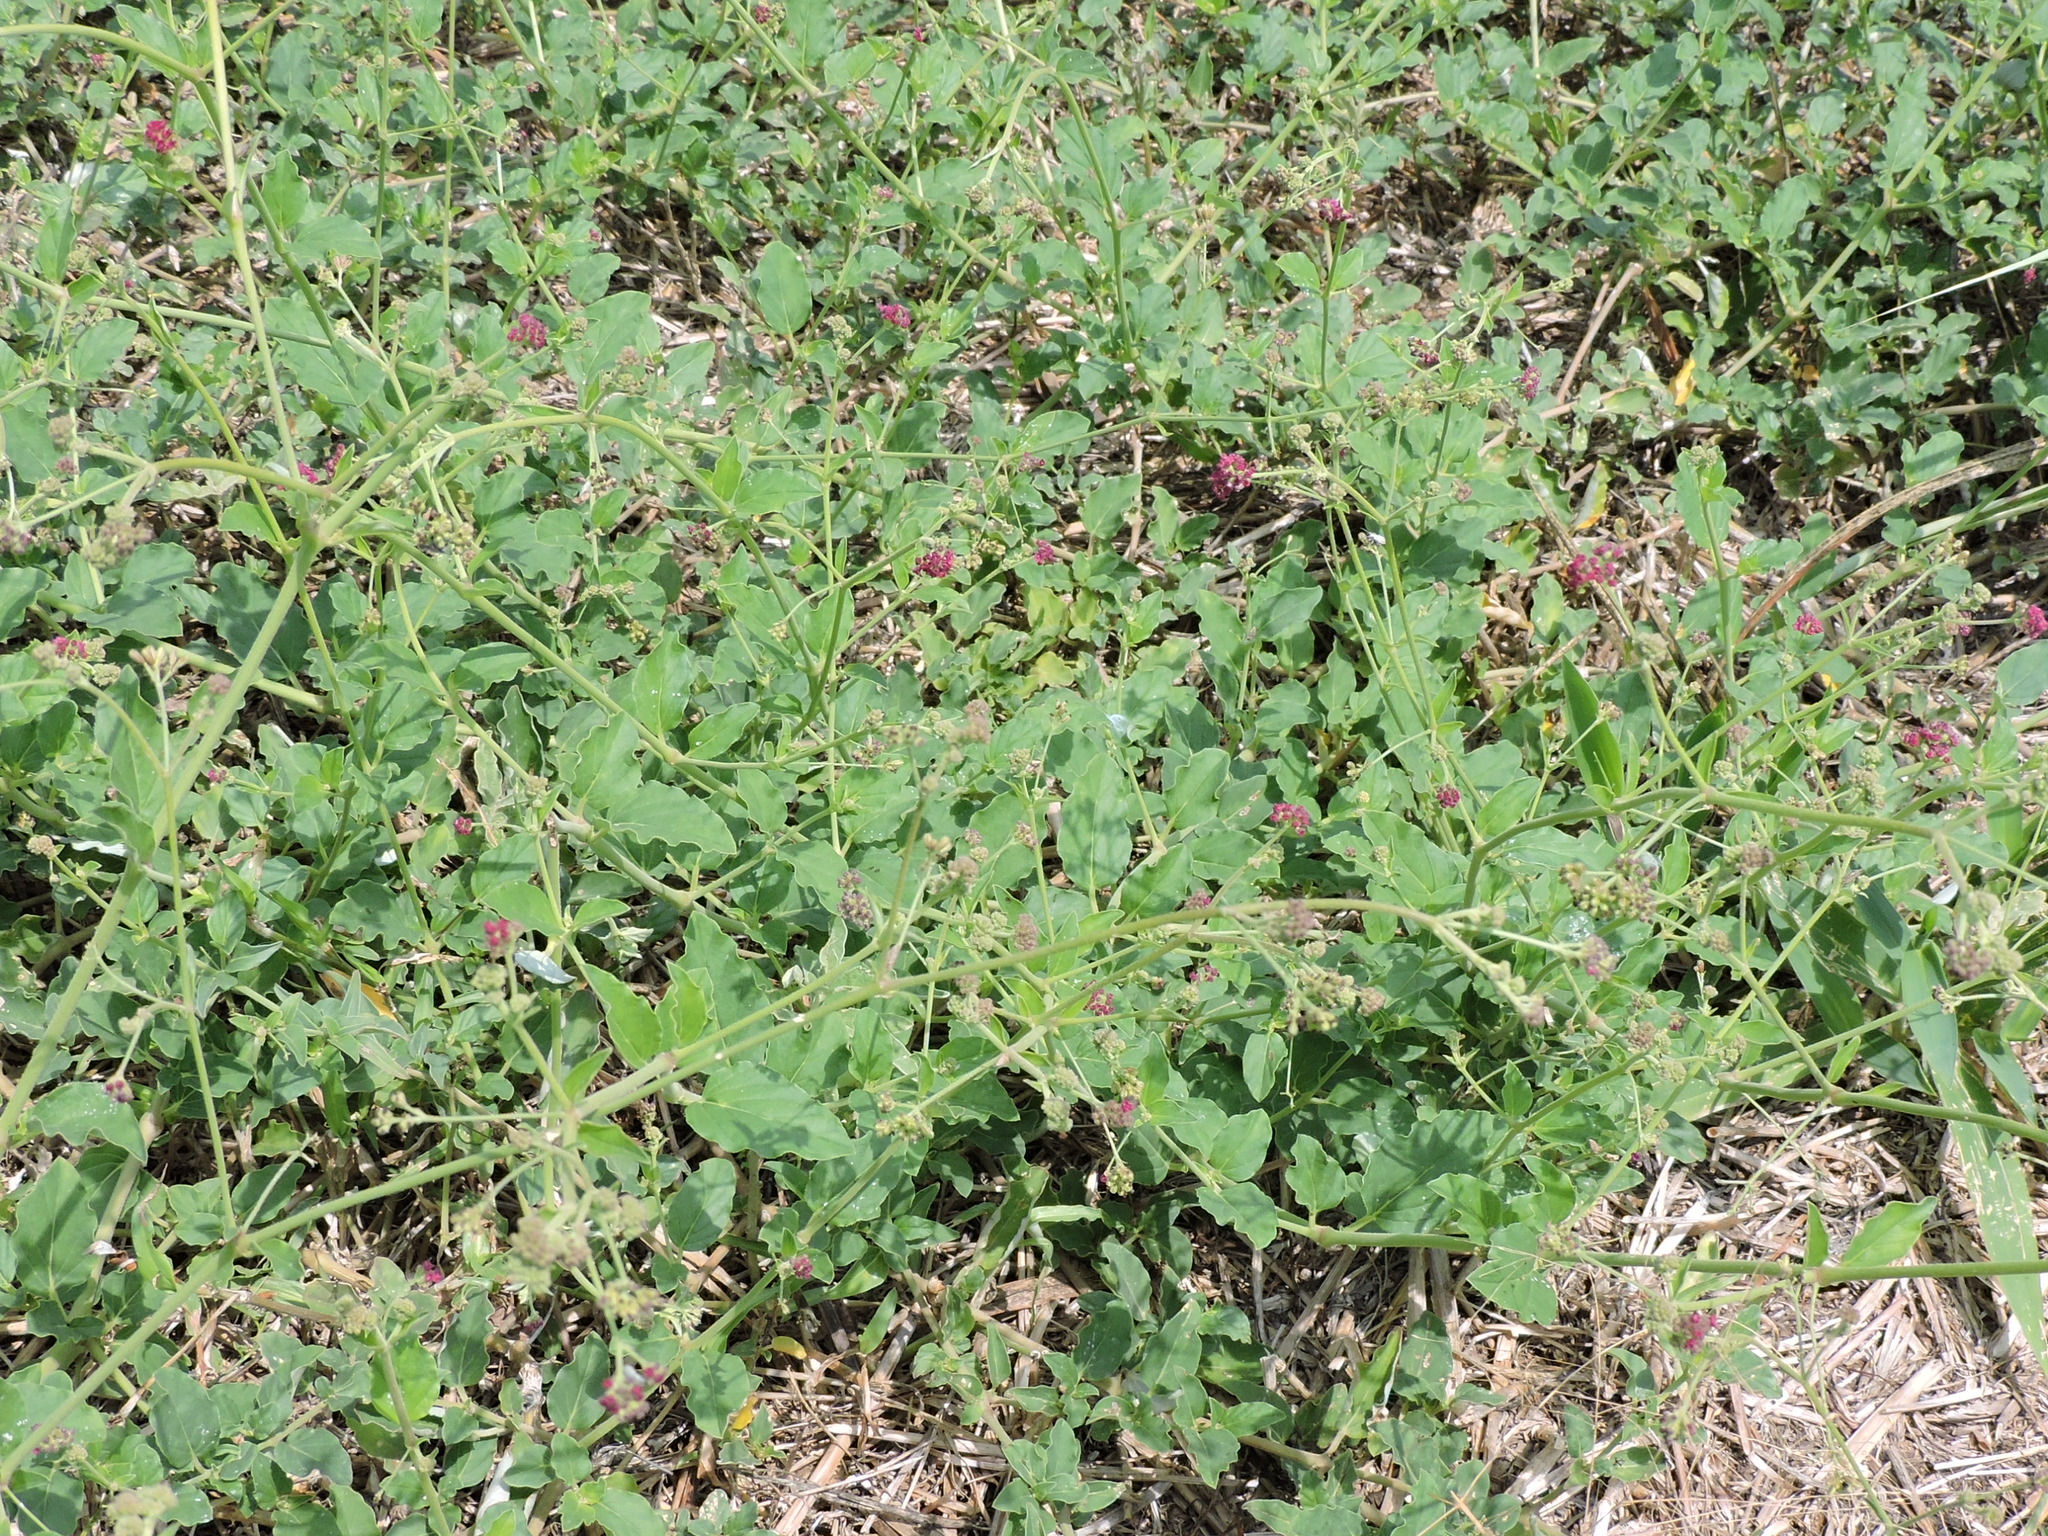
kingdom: Plantae
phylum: Tracheophyta
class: Magnoliopsida
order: Caryophyllales
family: Nyctaginaceae
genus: Boerhavia
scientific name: Boerhavia coccinea
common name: Scarlet spiderling
